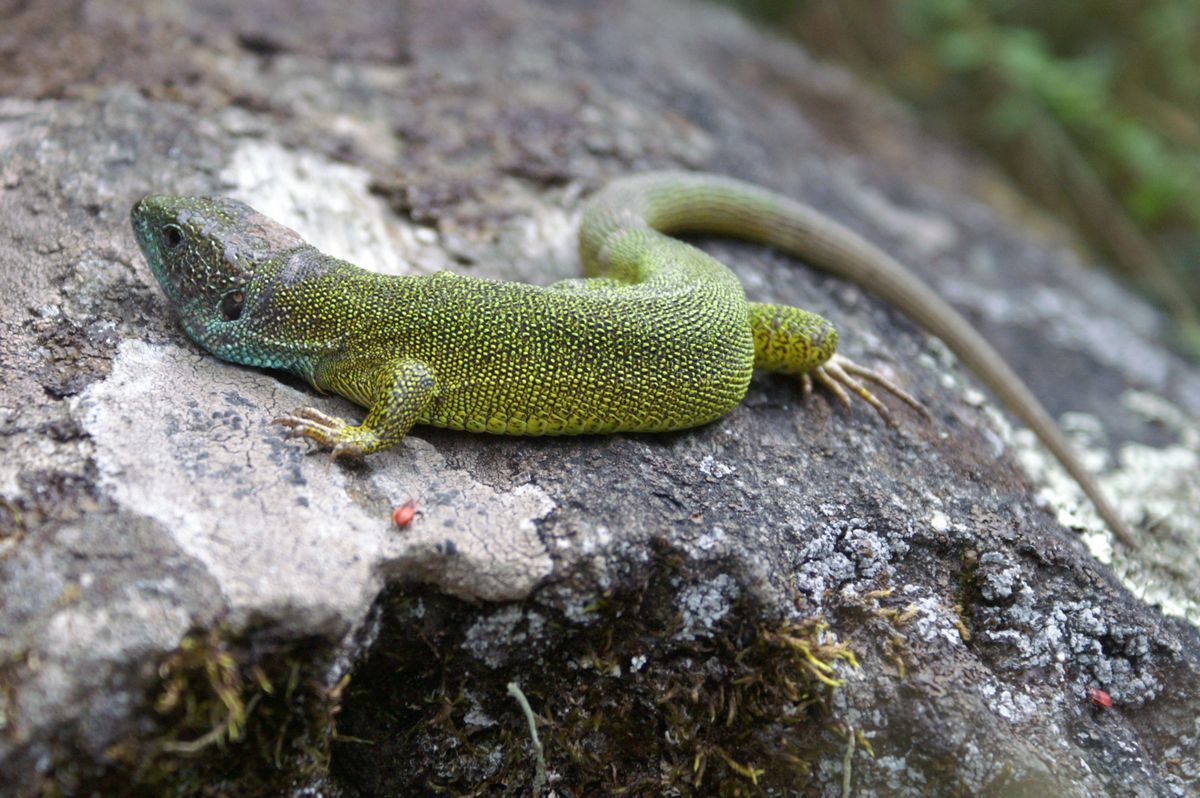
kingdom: Animalia
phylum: Chordata
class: Squamata
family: Lacertidae
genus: Lacerta
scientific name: Lacerta viridis
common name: European green lizard
